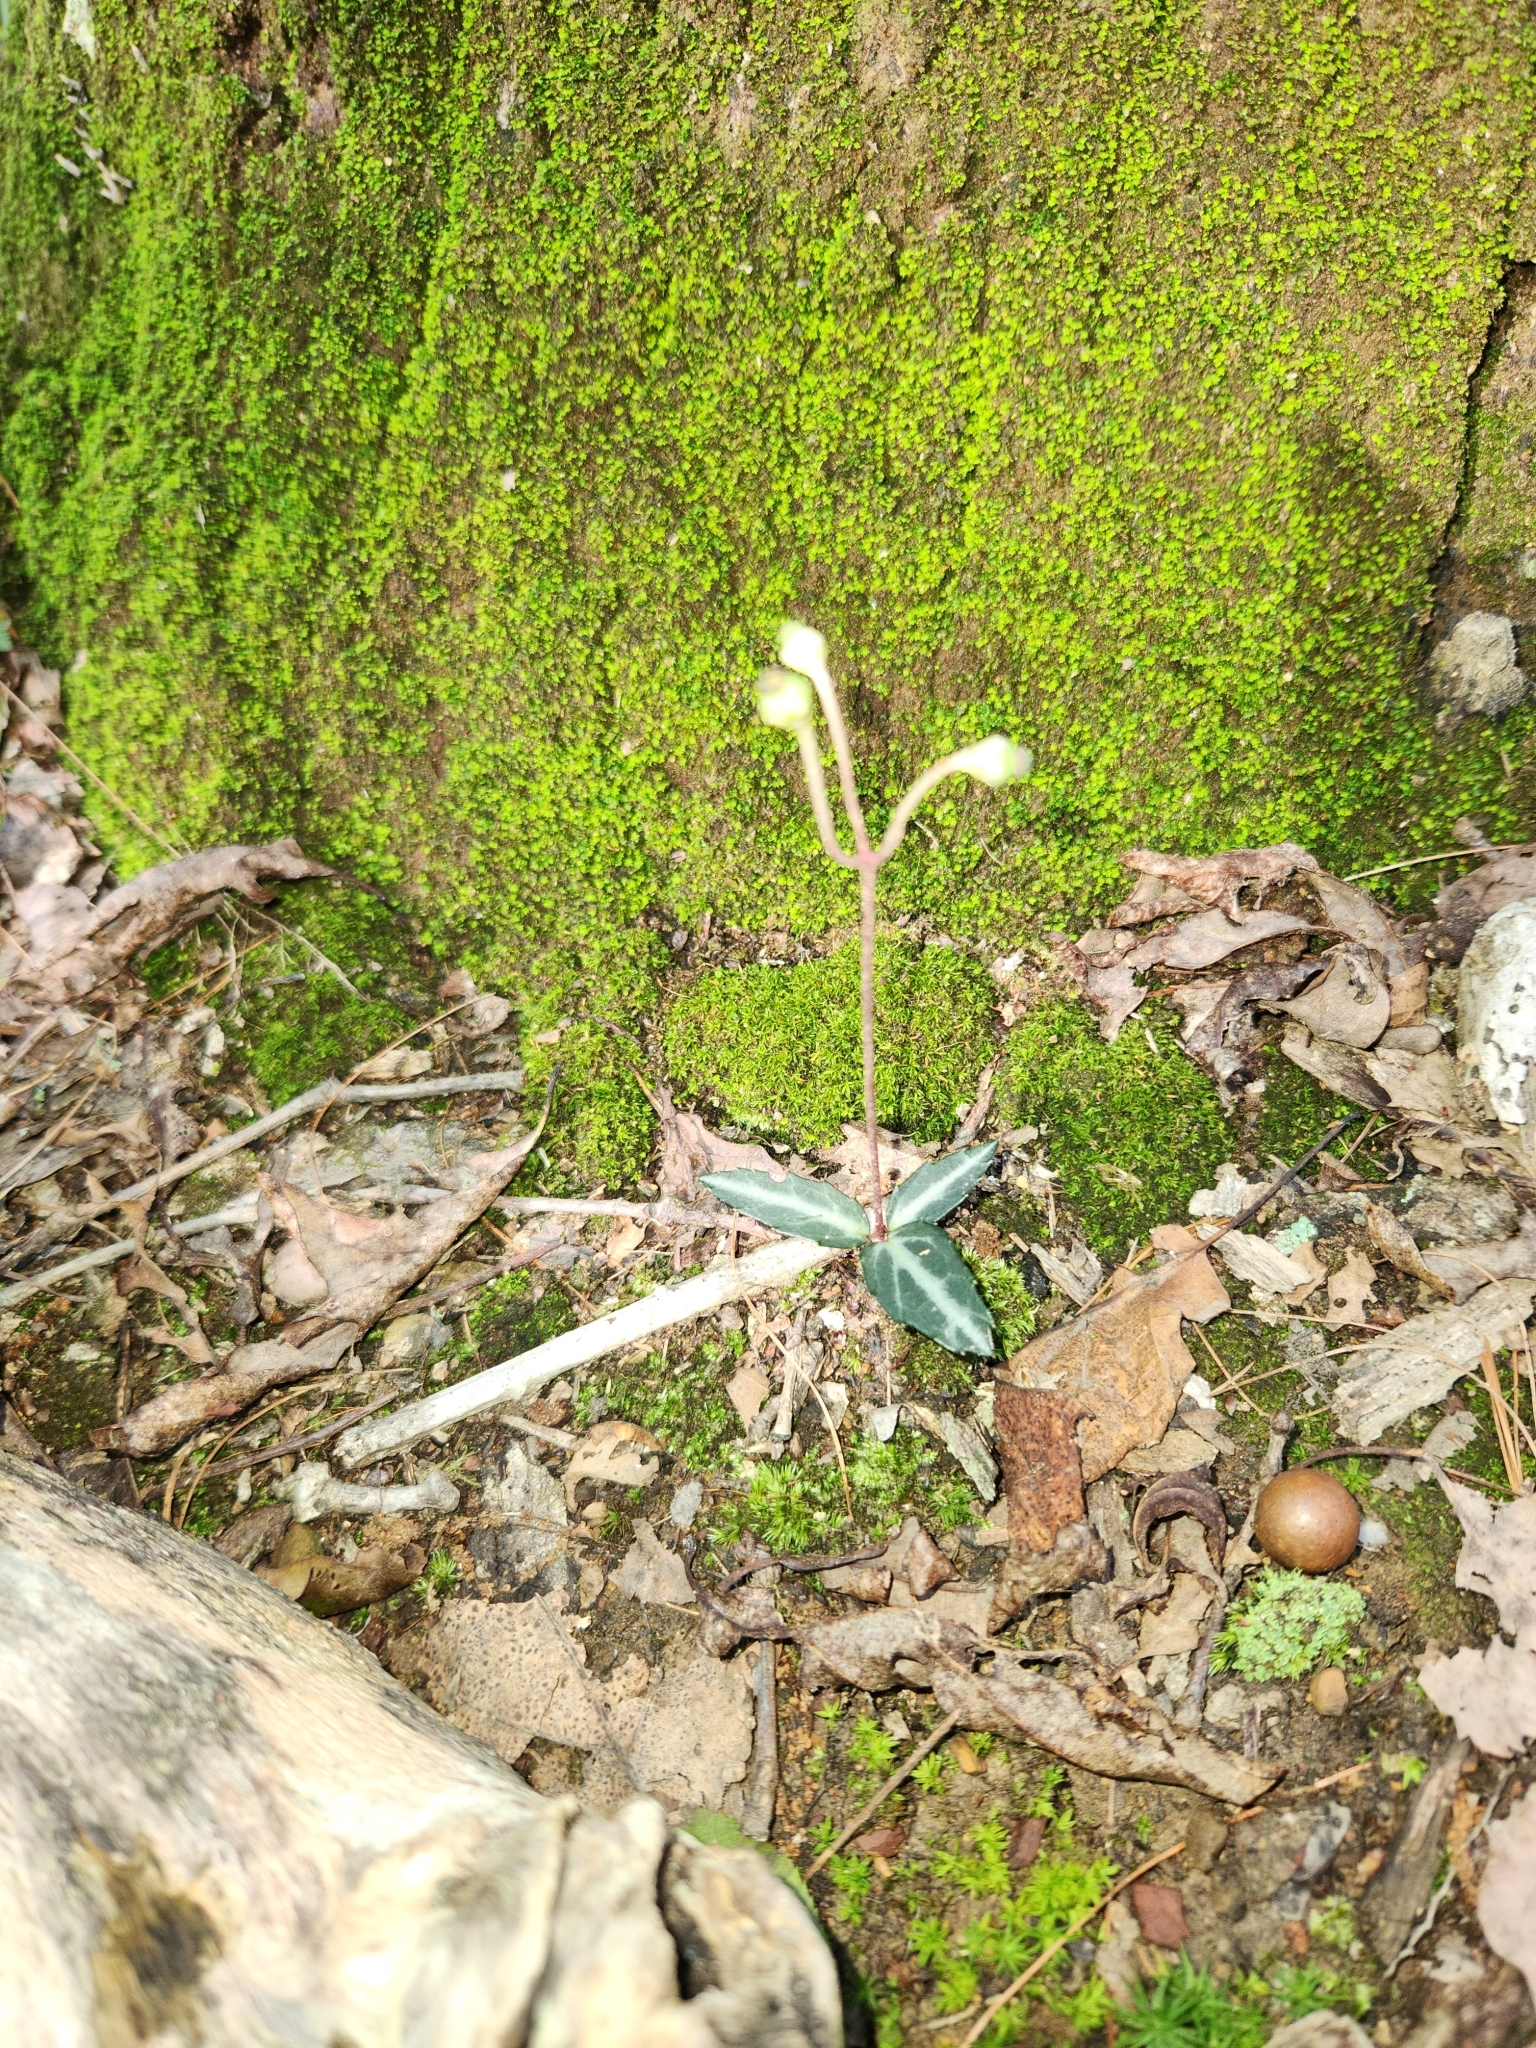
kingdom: Plantae
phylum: Tracheophyta
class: Magnoliopsida
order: Ericales
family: Ericaceae
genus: Chimaphila
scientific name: Chimaphila maculata
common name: Spotted pipsissewa
